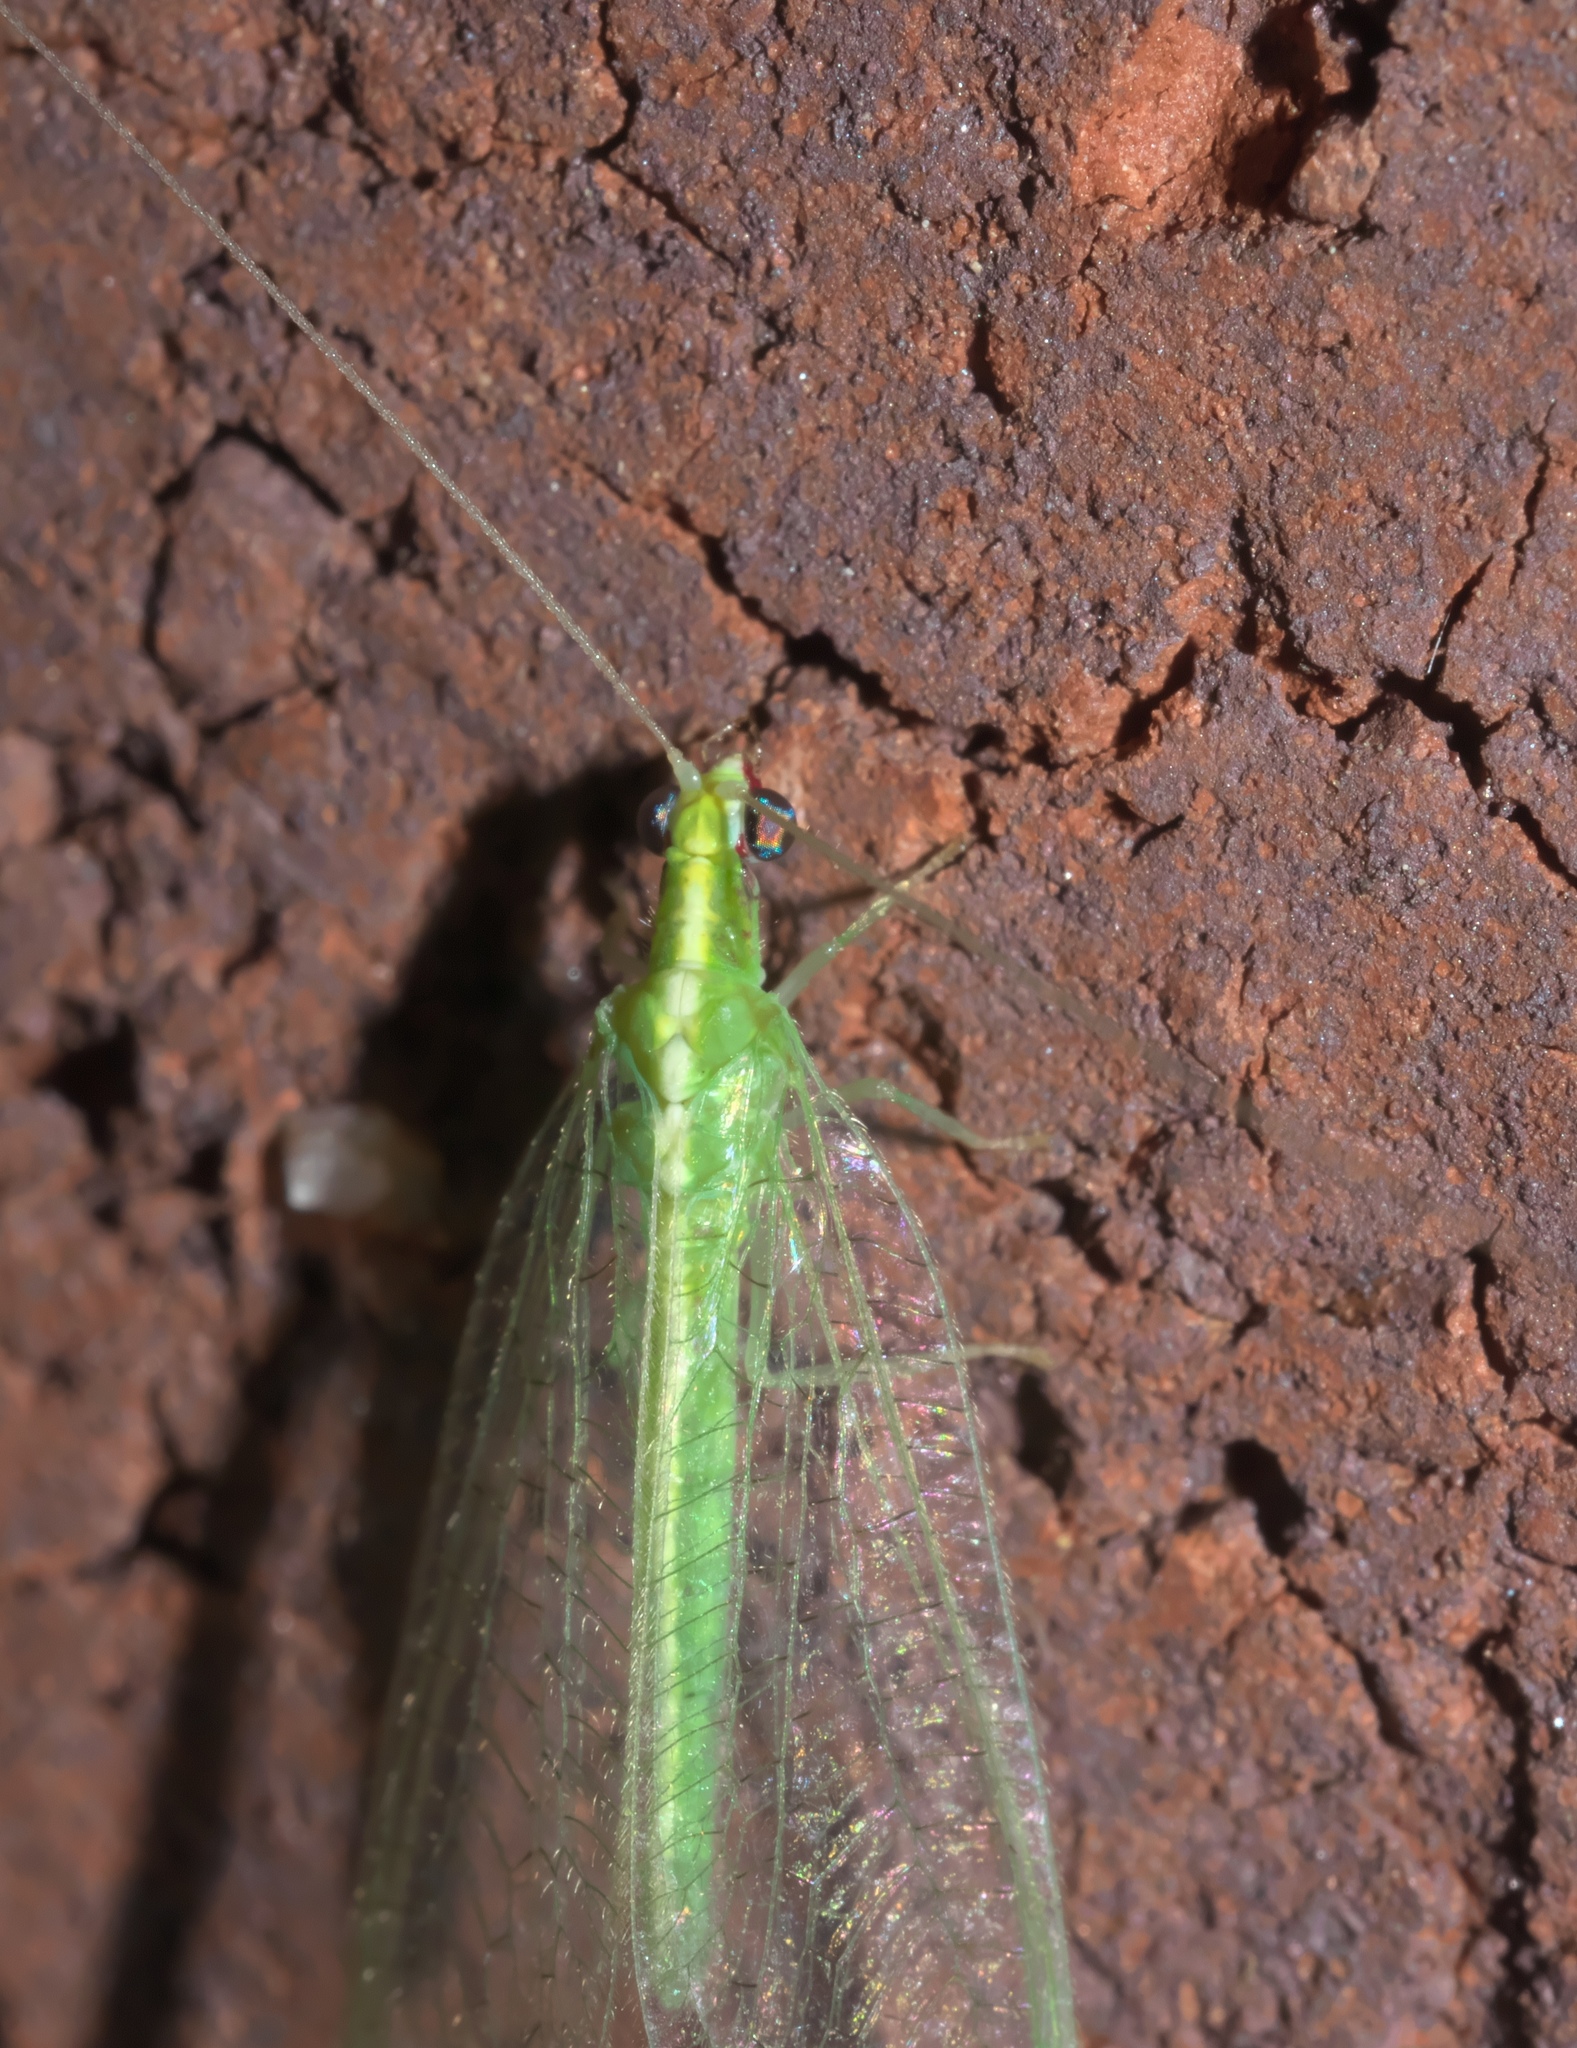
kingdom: Animalia
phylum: Arthropoda
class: Insecta
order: Neuroptera
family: Chrysopidae
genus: Chrysoperla
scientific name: Chrysoperla rufilabris
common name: Red-lipped green lacewing
